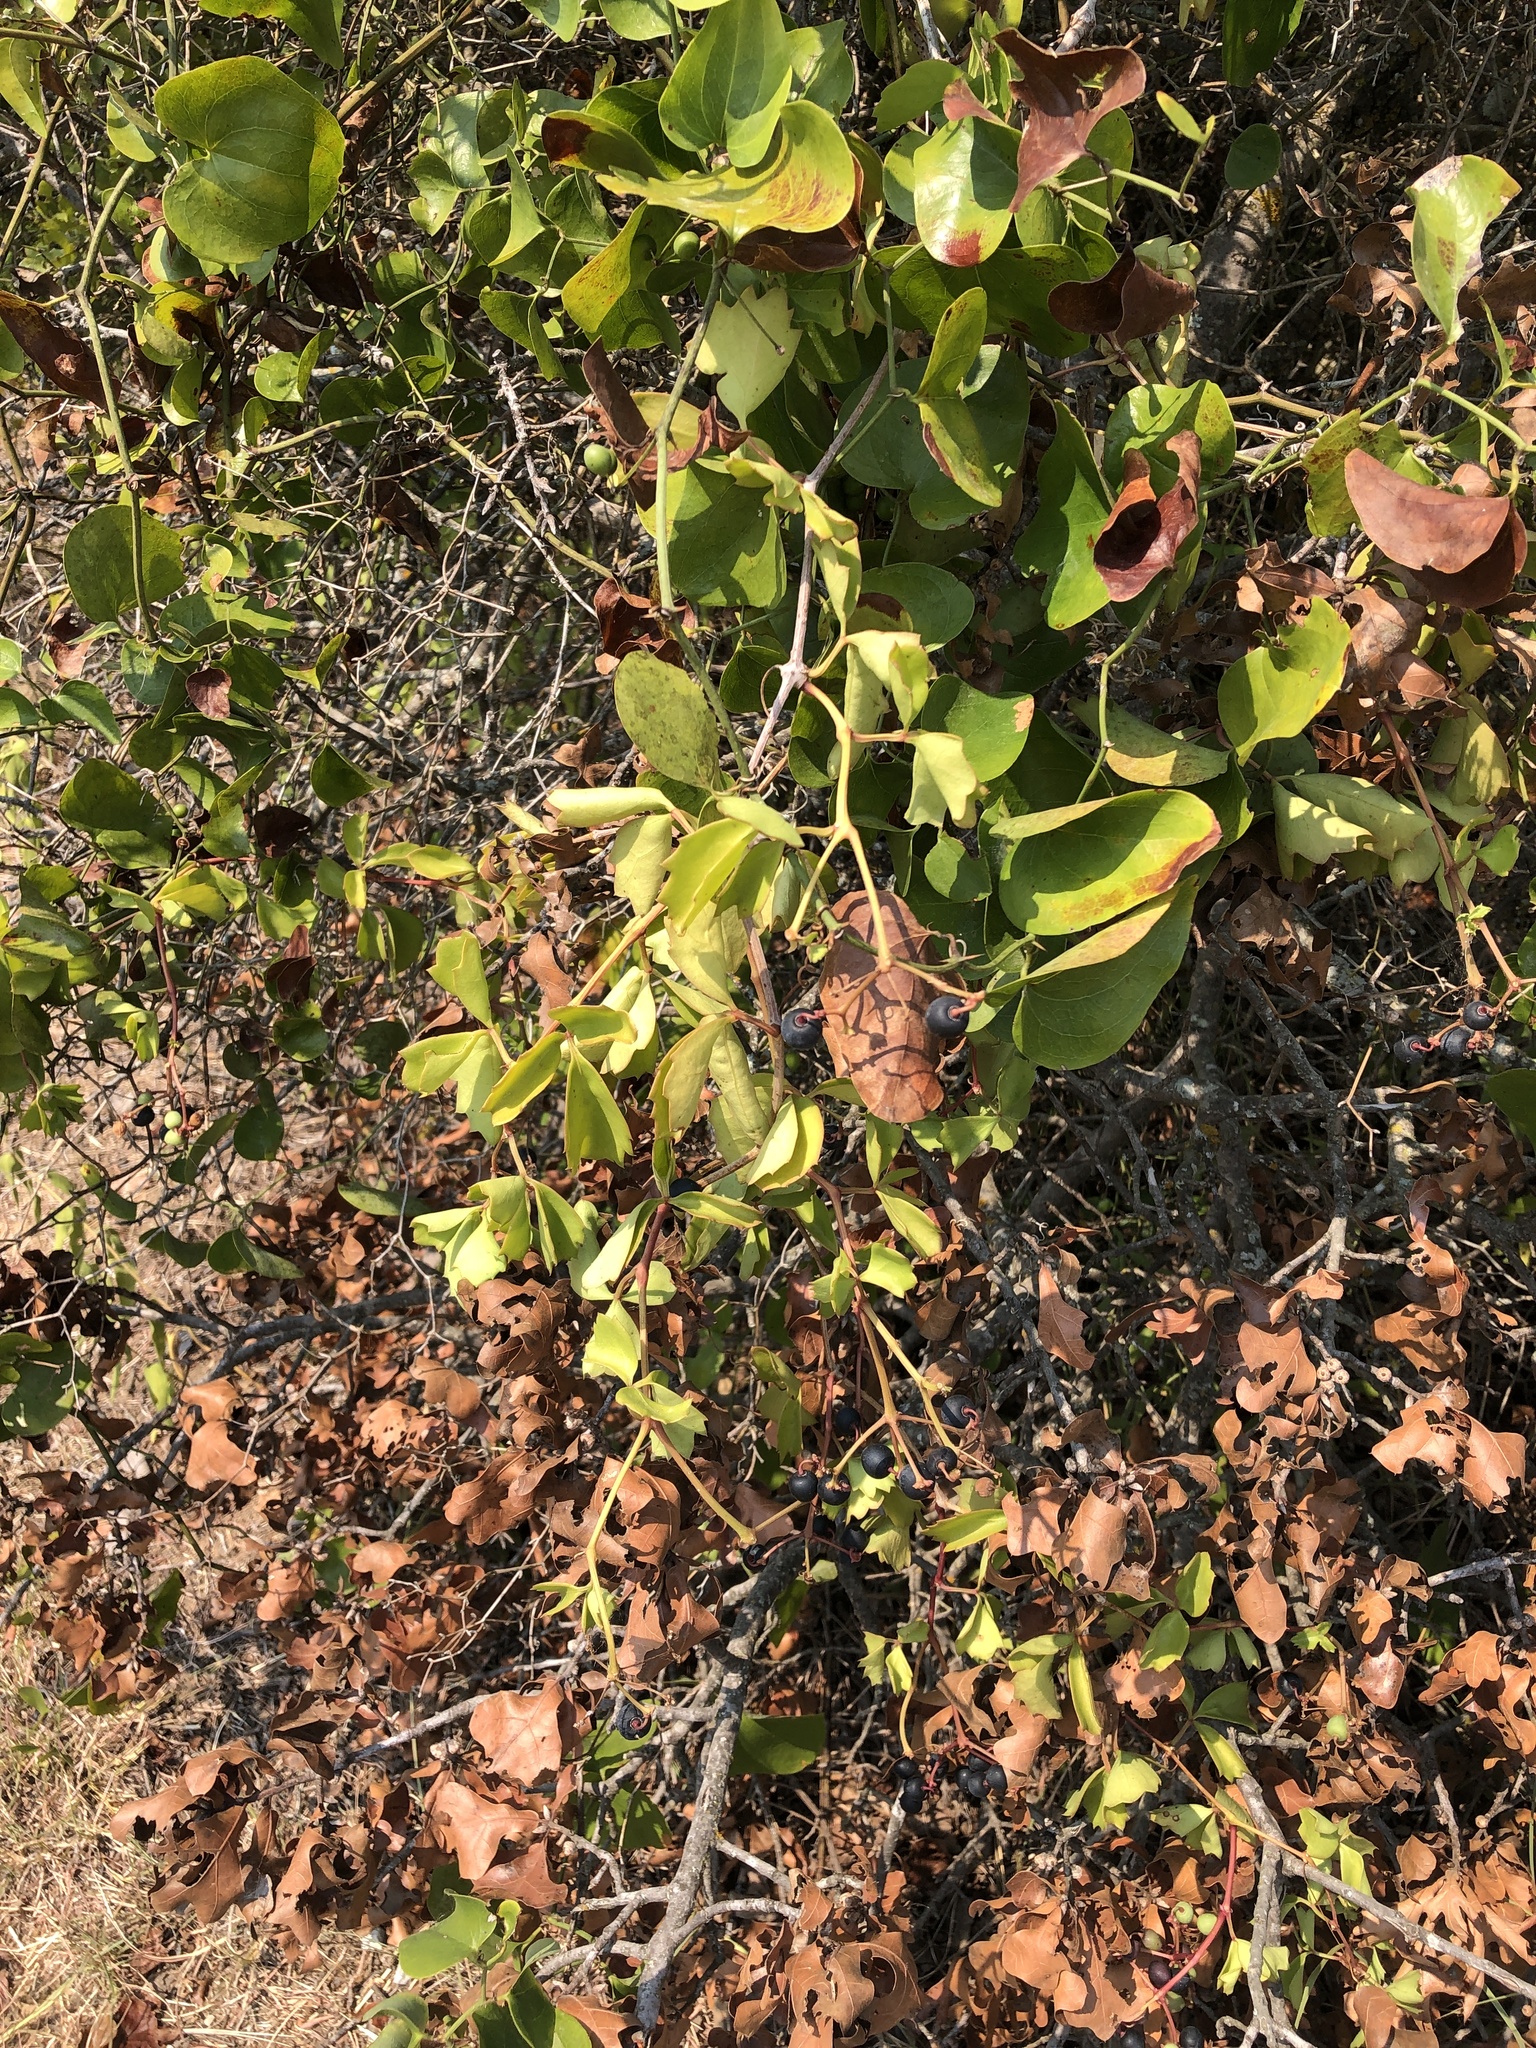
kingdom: Plantae
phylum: Tracheophyta
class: Magnoliopsida
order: Vitales
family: Vitaceae
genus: Cissus
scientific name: Cissus trifoliata
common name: Vine-sorrel
